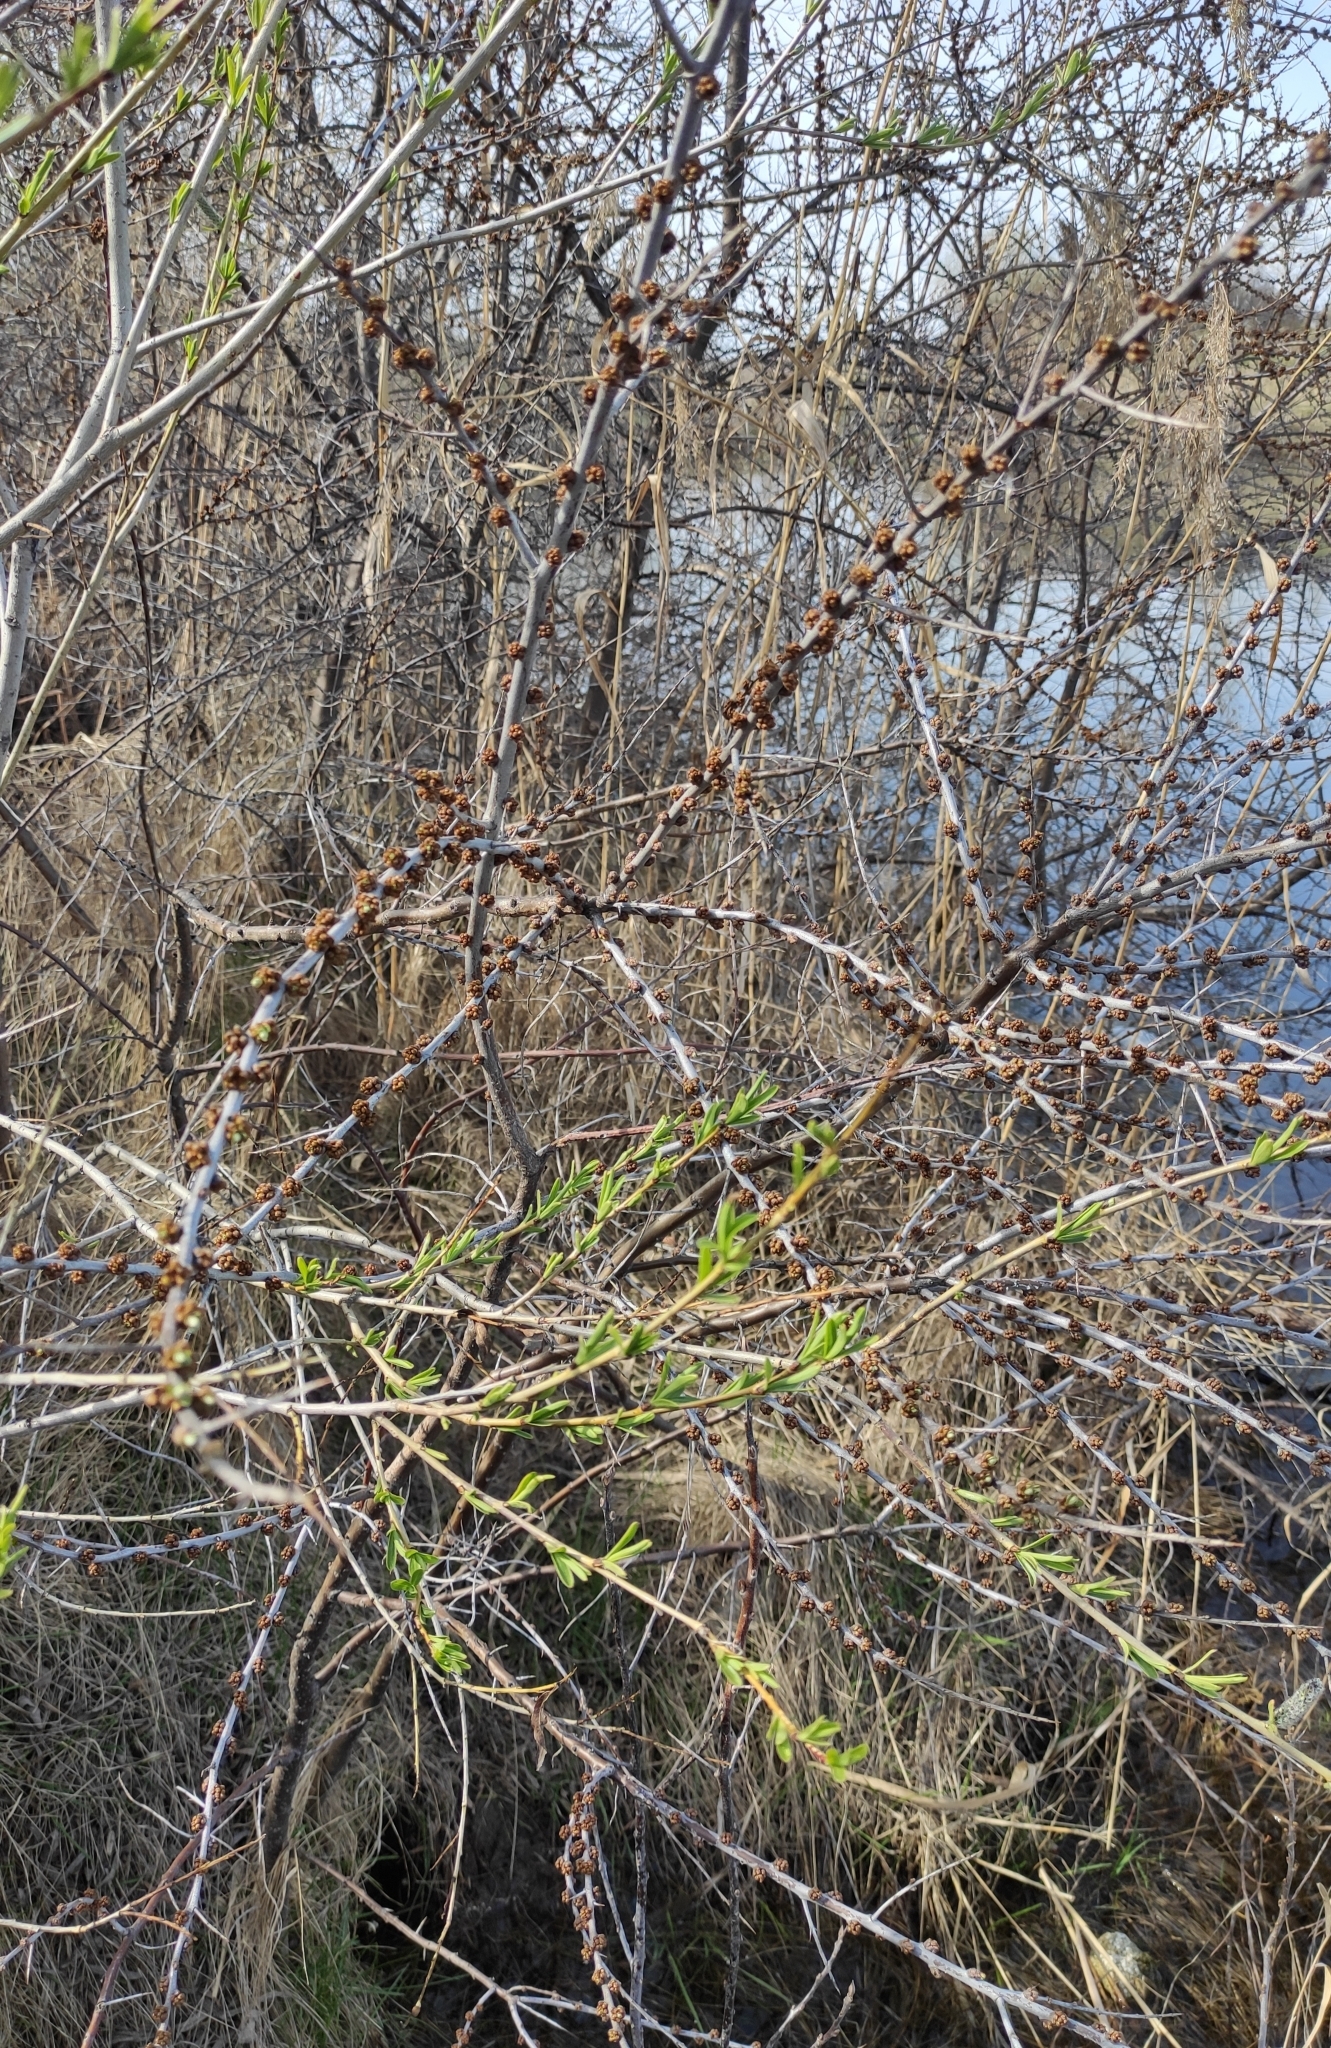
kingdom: Plantae
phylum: Tracheophyta
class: Magnoliopsida
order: Rosales
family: Elaeagnaceae
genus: Hippophae
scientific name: Hippophae rhamnoides
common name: Sea-buckthorn
